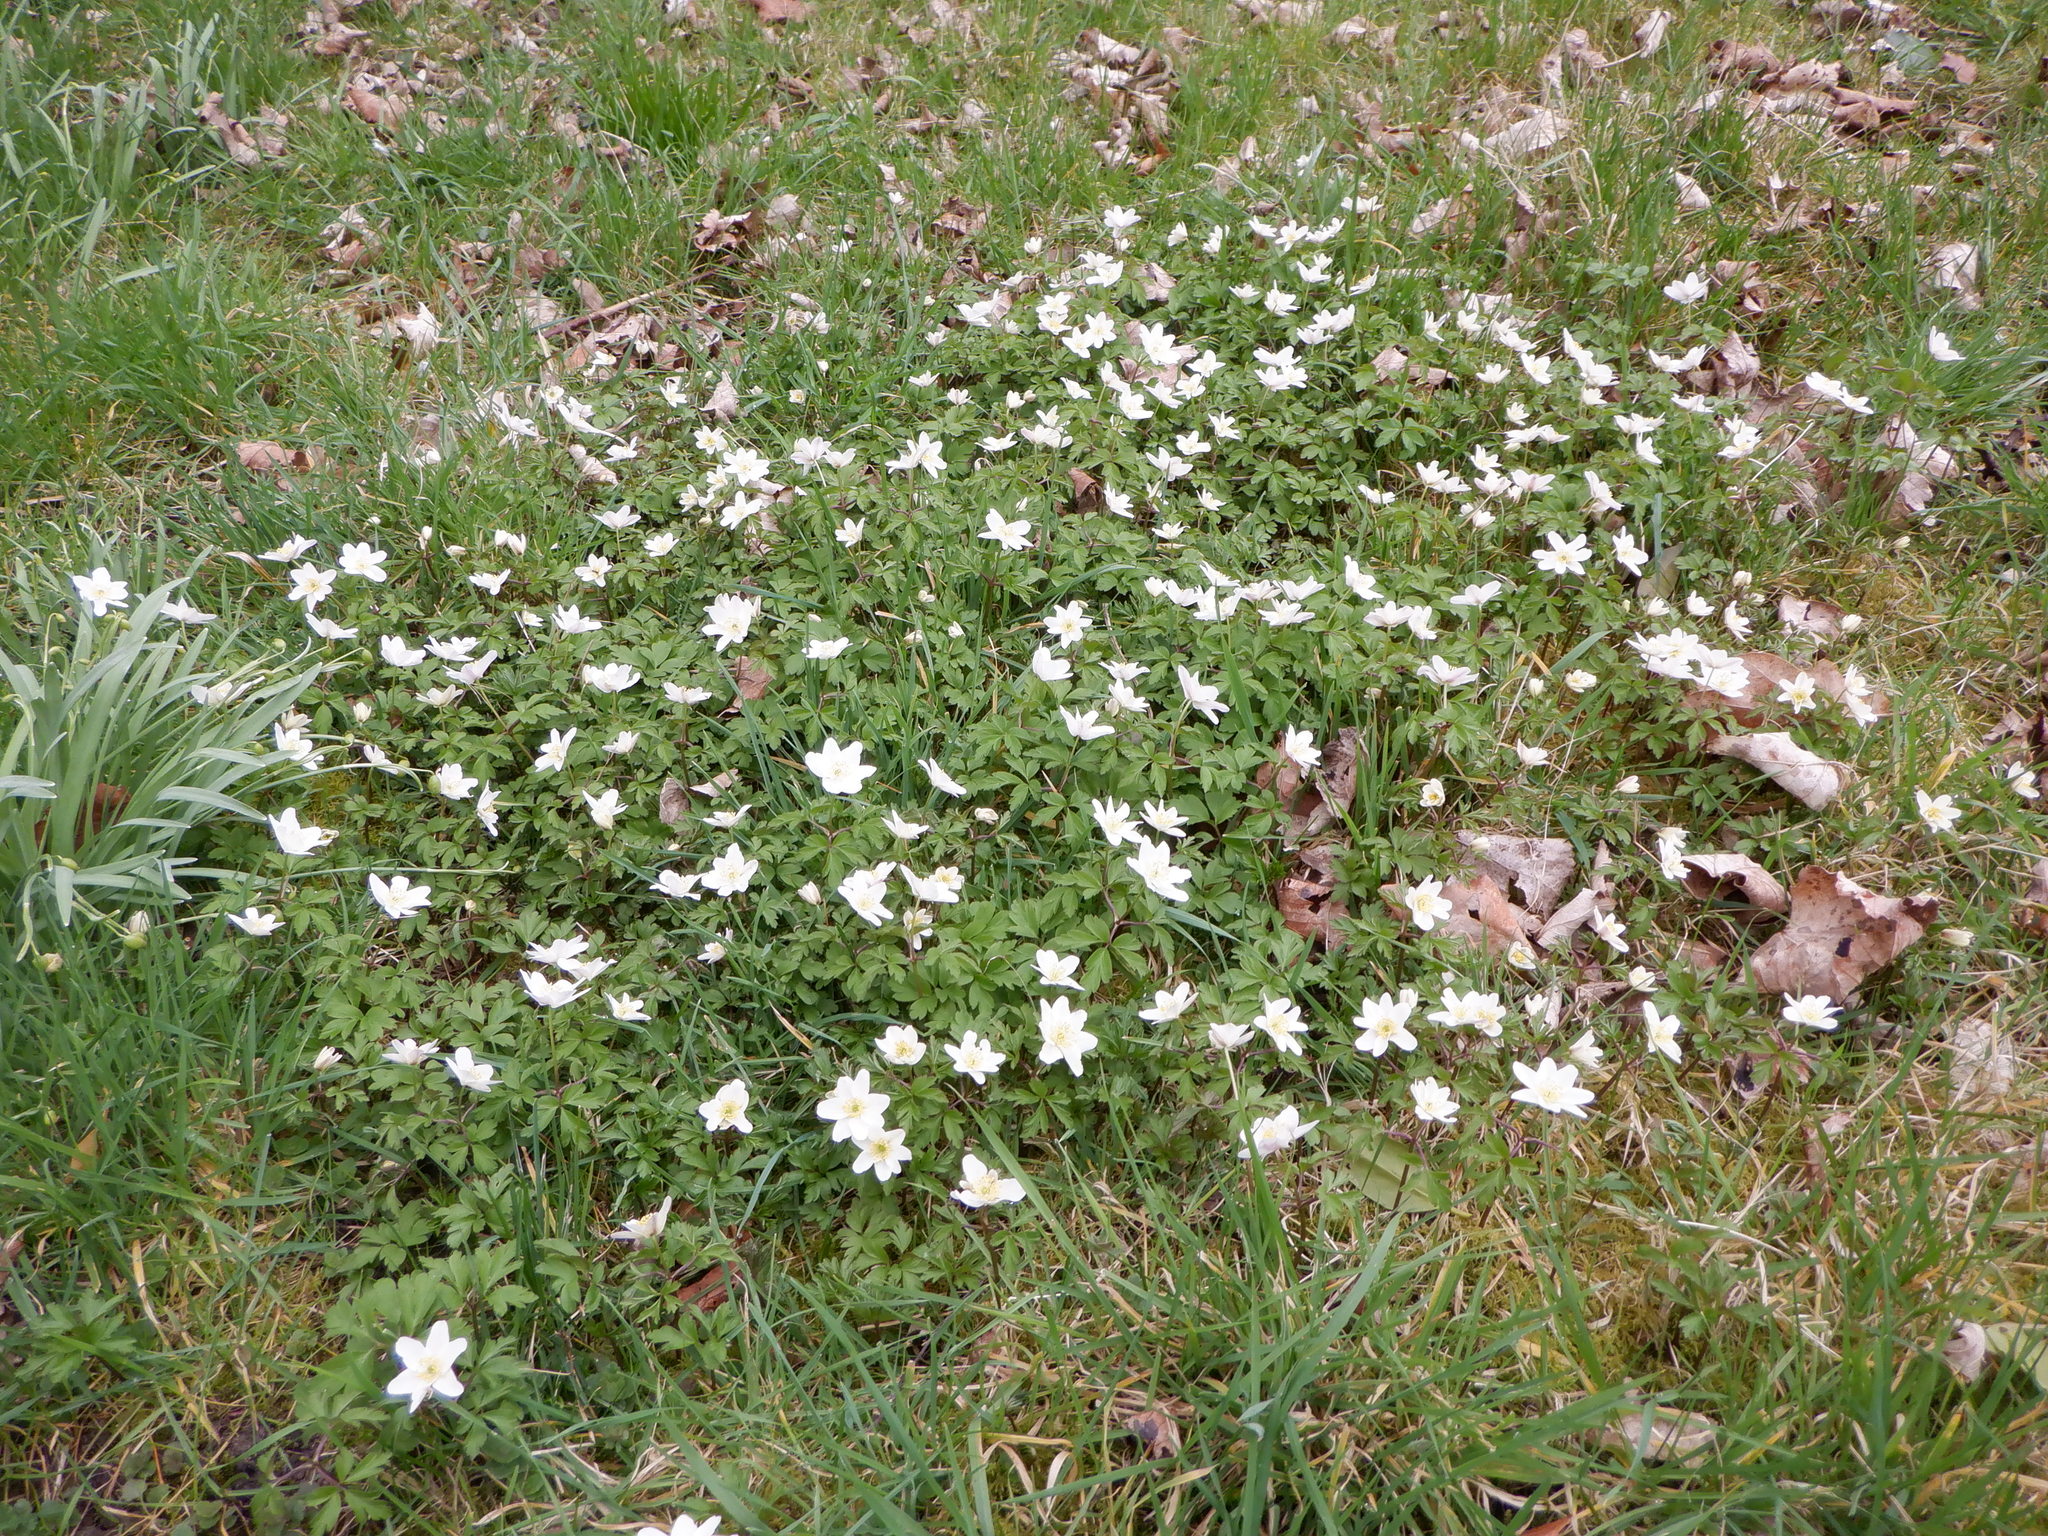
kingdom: Plantae
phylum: Tracheophyta
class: Magnoliopsida
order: Ranunculales
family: Ranunculaceae
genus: Anemone
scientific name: Anemone nemorosa
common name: Wood anemone
